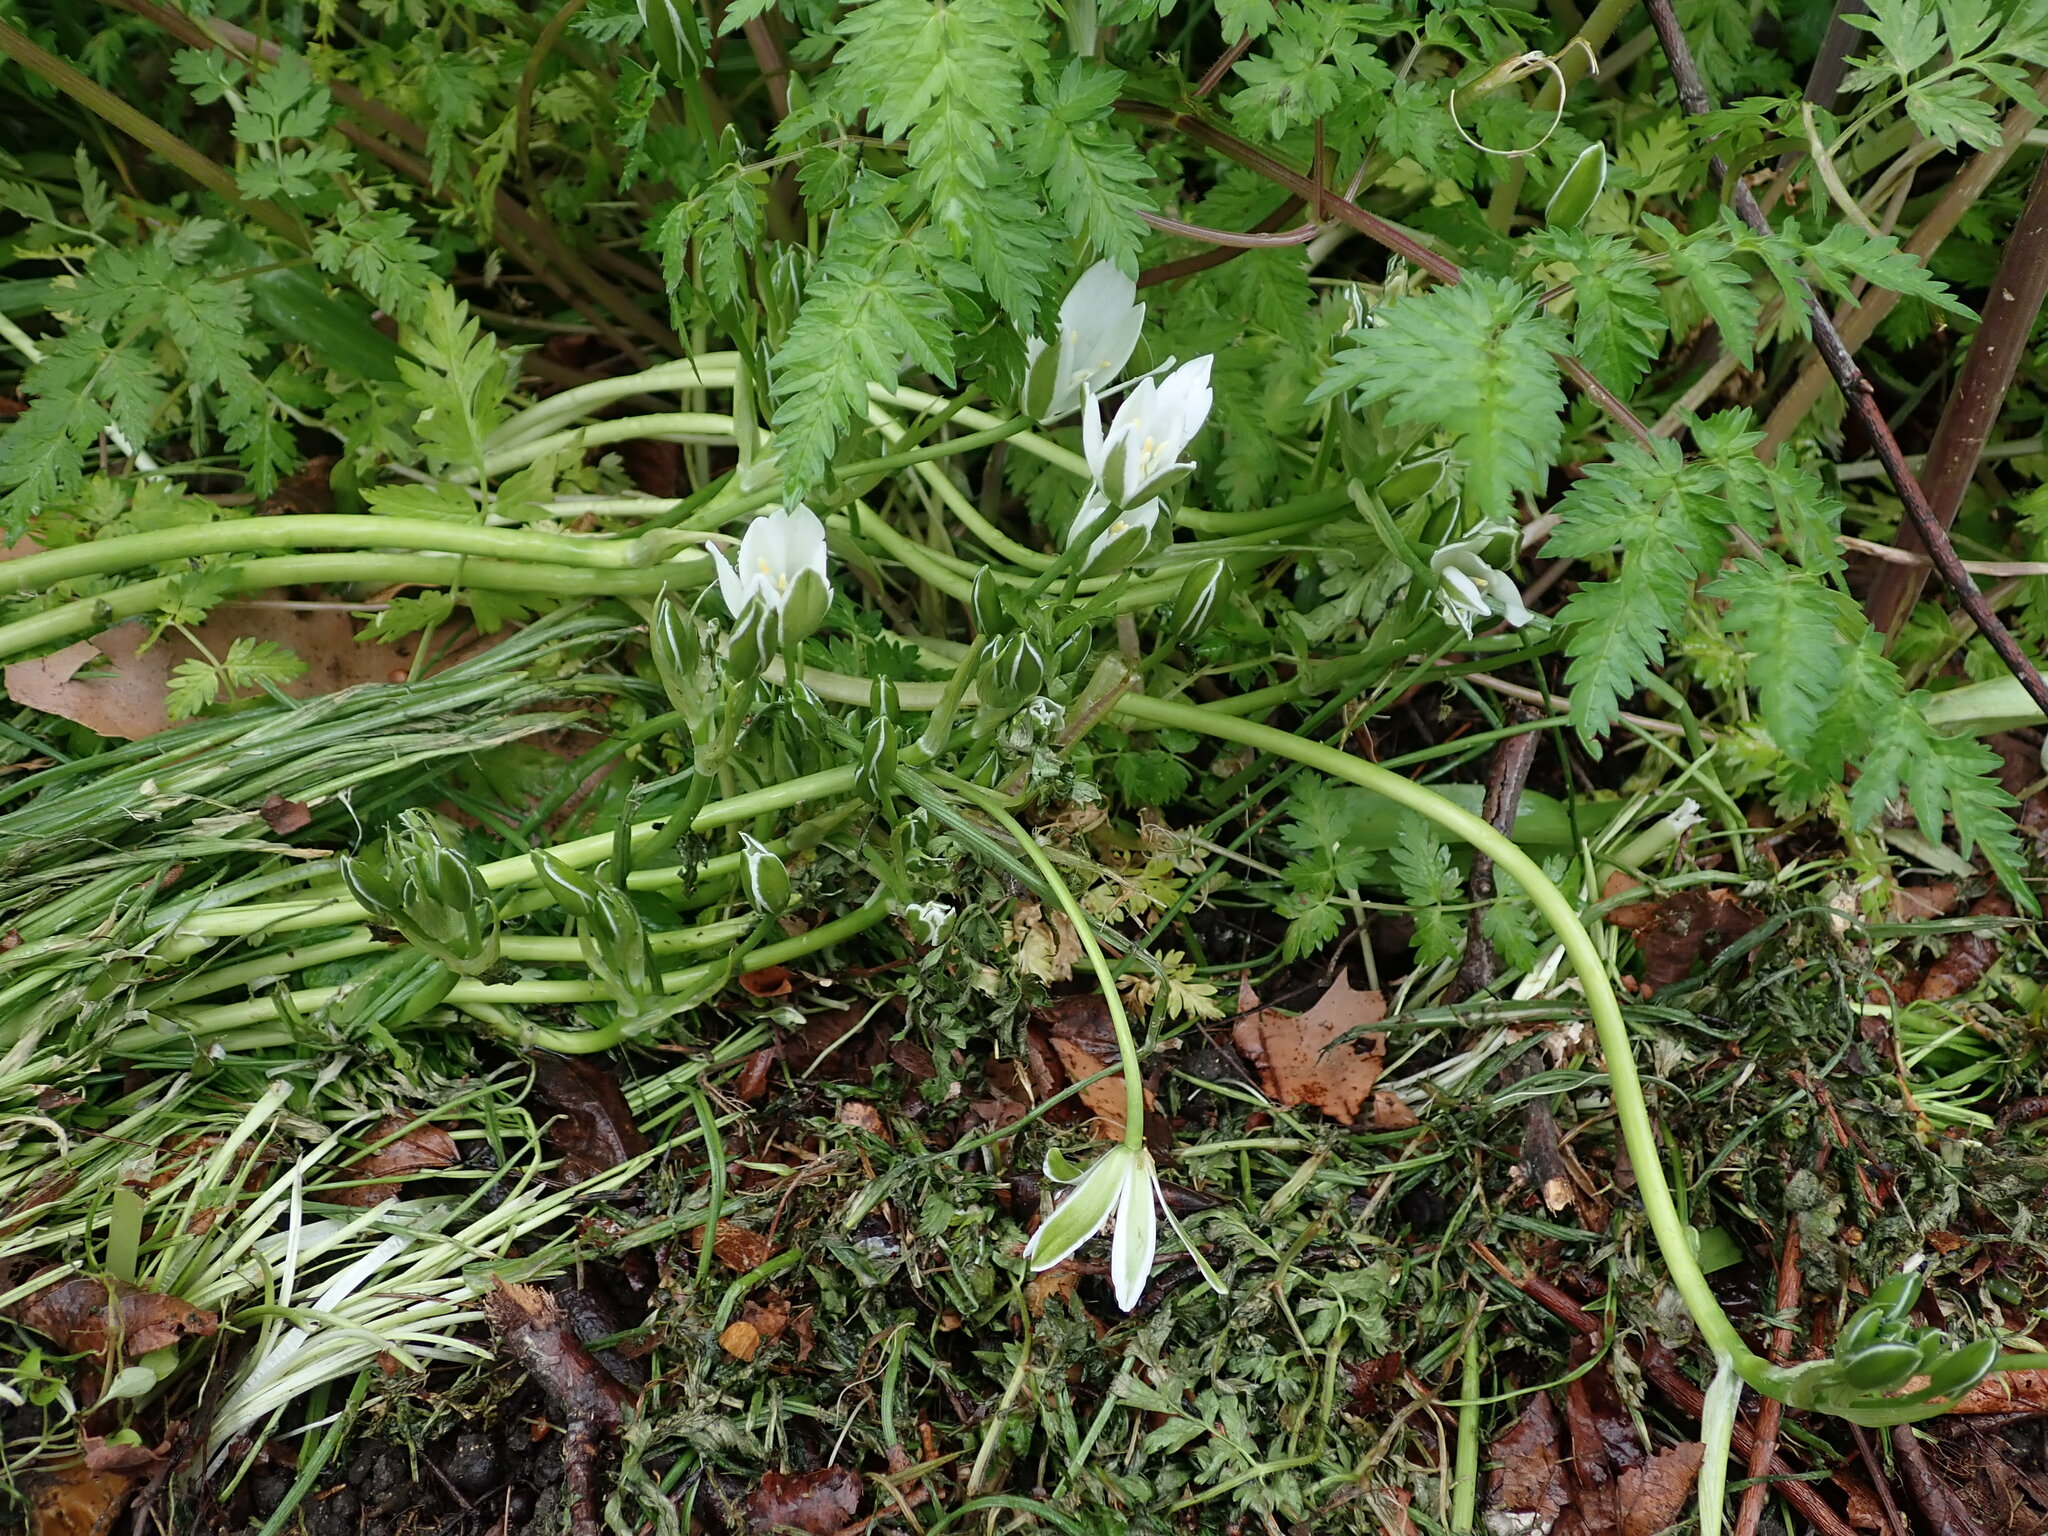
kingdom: Plantae
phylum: Tracheophyta
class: Liliopsida
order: Asparagales
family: Asparagaceae
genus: Ornithogalum
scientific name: Ornithogalum umbellatum
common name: Garden star-of-bethlehem
